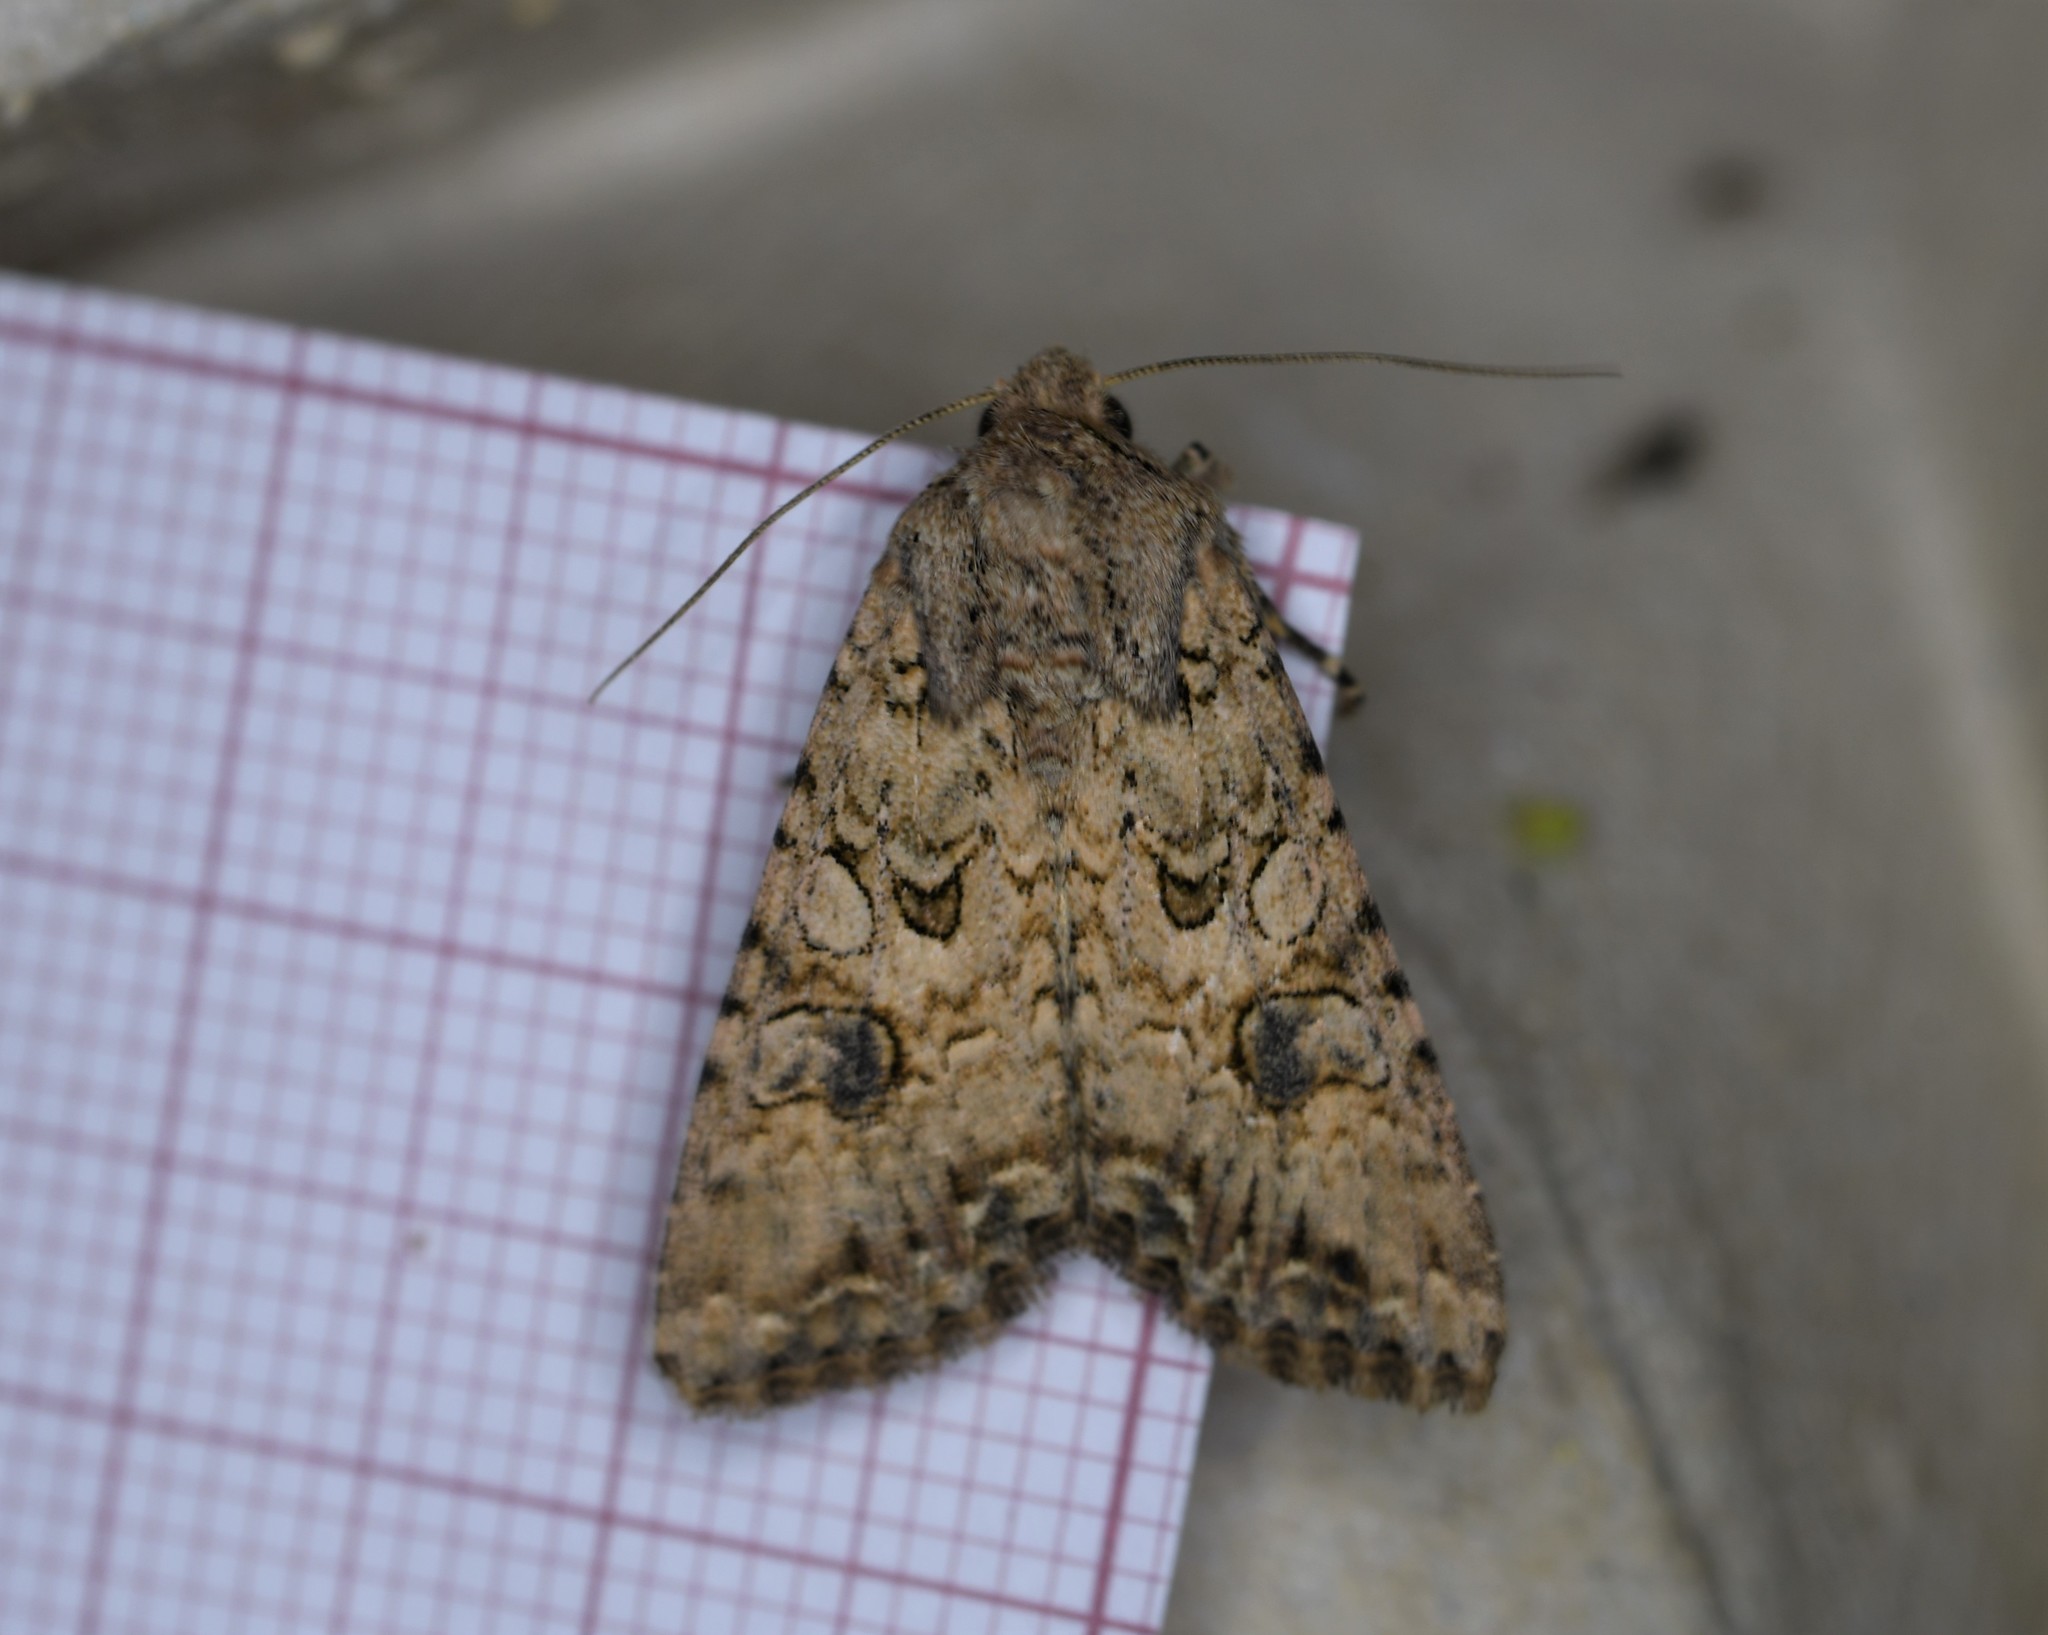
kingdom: Animalia
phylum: Arthropoda
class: Insecta
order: Lepidoptera
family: Noctuidae
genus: Anarta
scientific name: Anarta trifolii
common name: Clover cutworm moth
